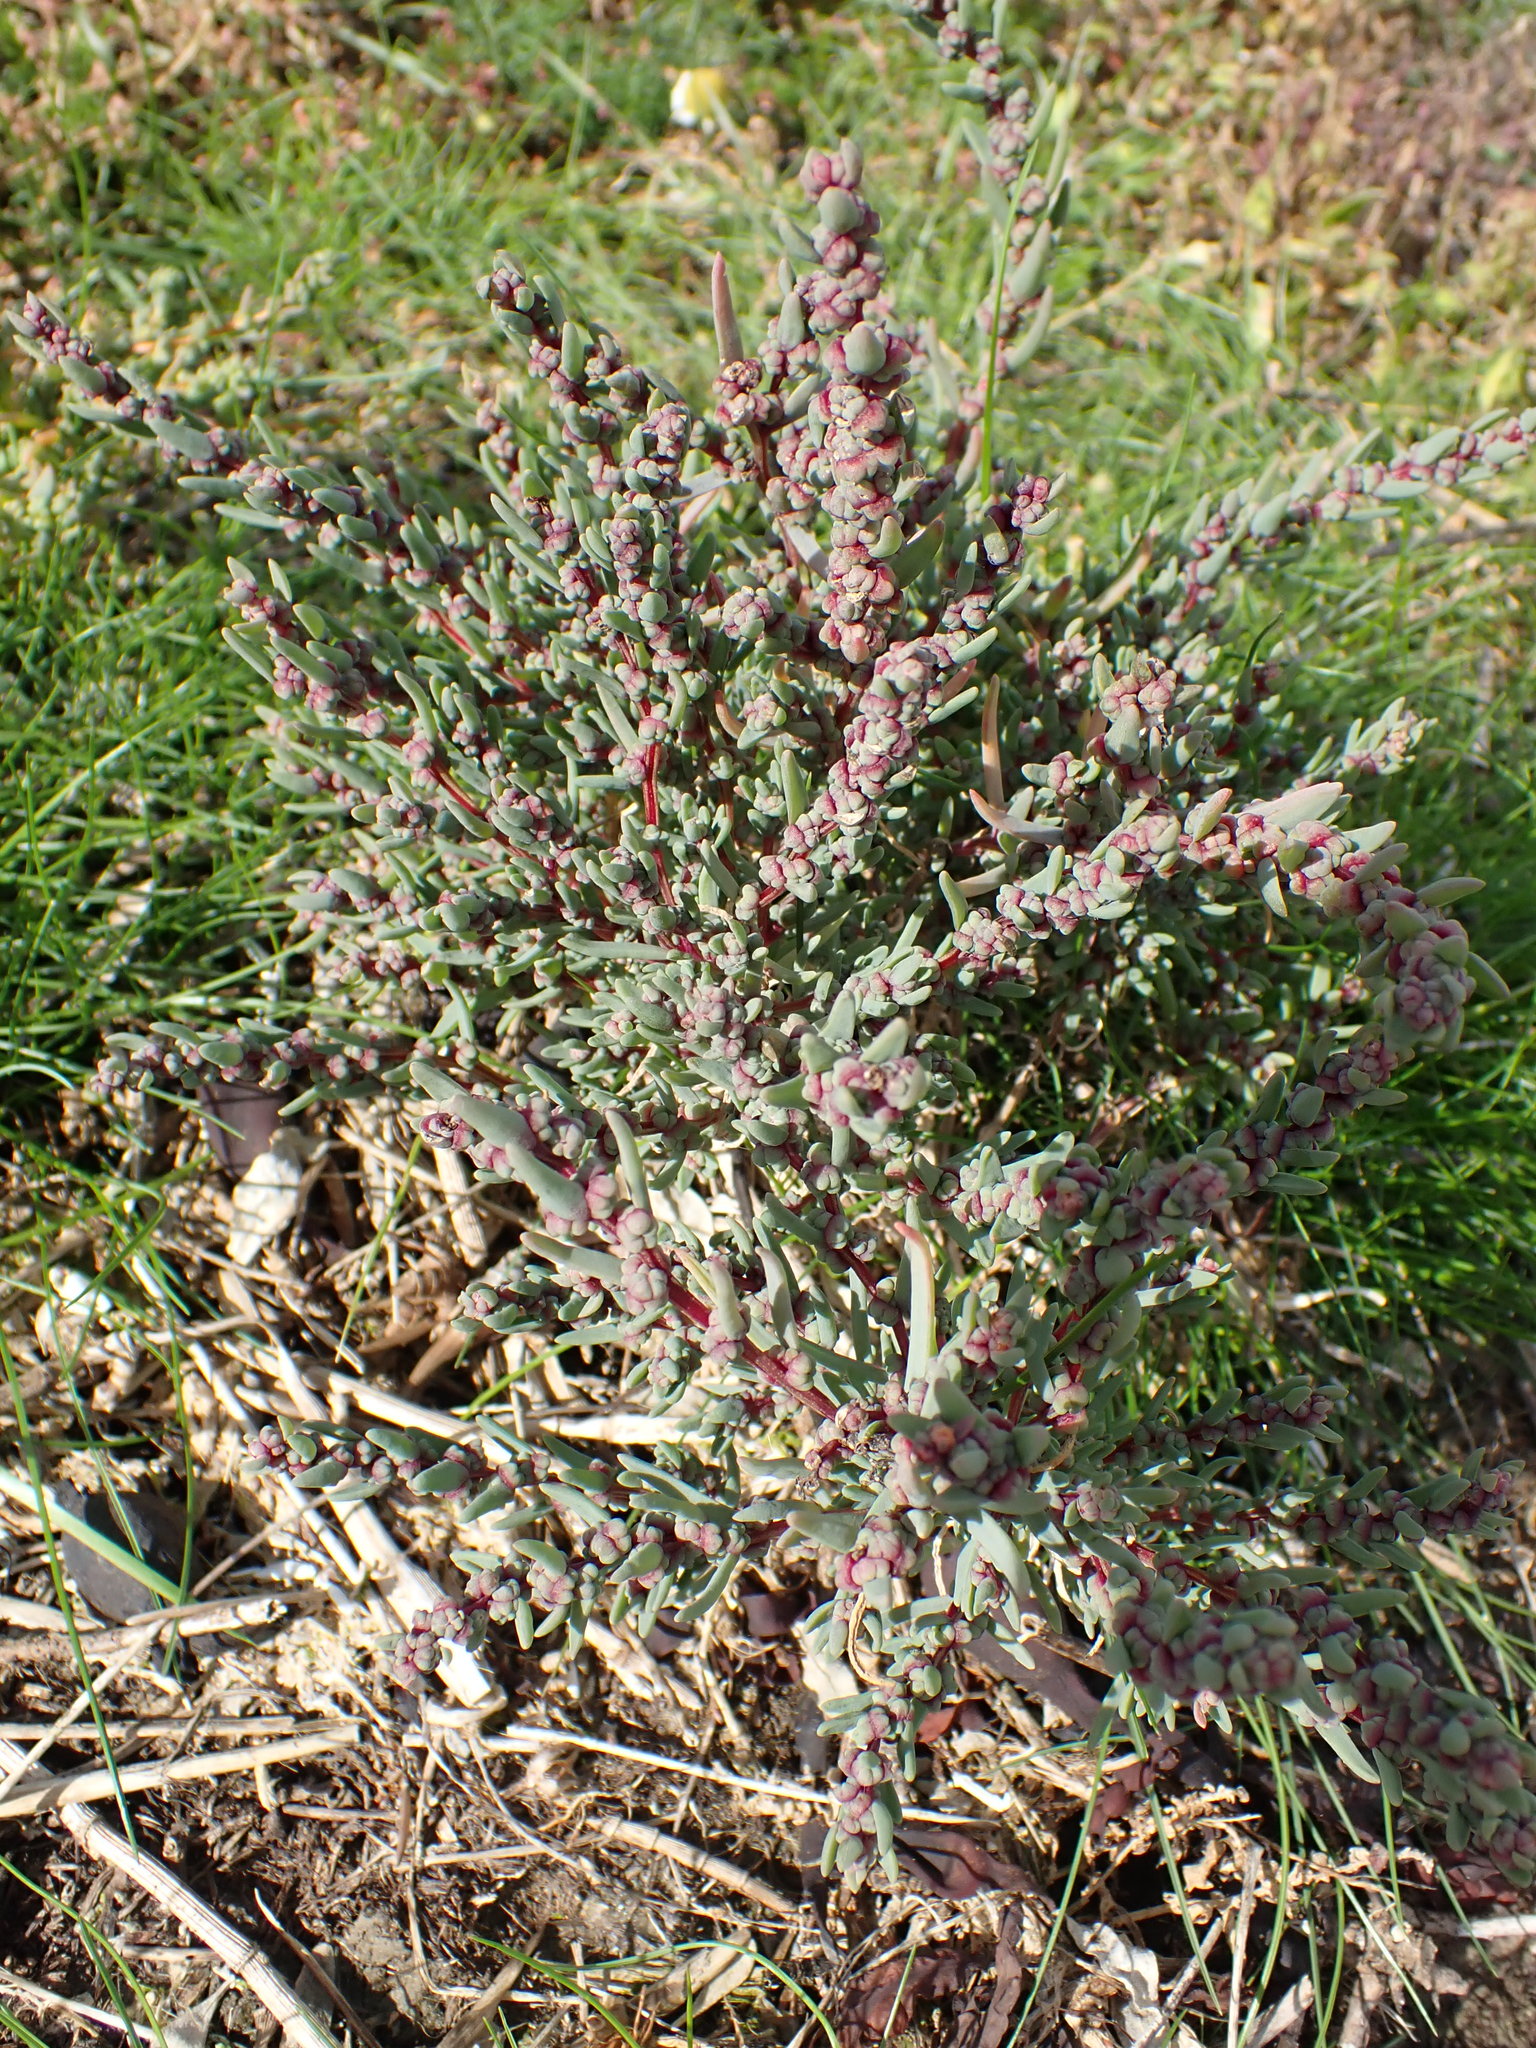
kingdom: Plantae
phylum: Tracheophyta
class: Magnoliopsida
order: Caryophyllales
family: Amaranthaceae
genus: Suaeda
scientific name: Suaeda maritima
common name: Annual sea-blite
